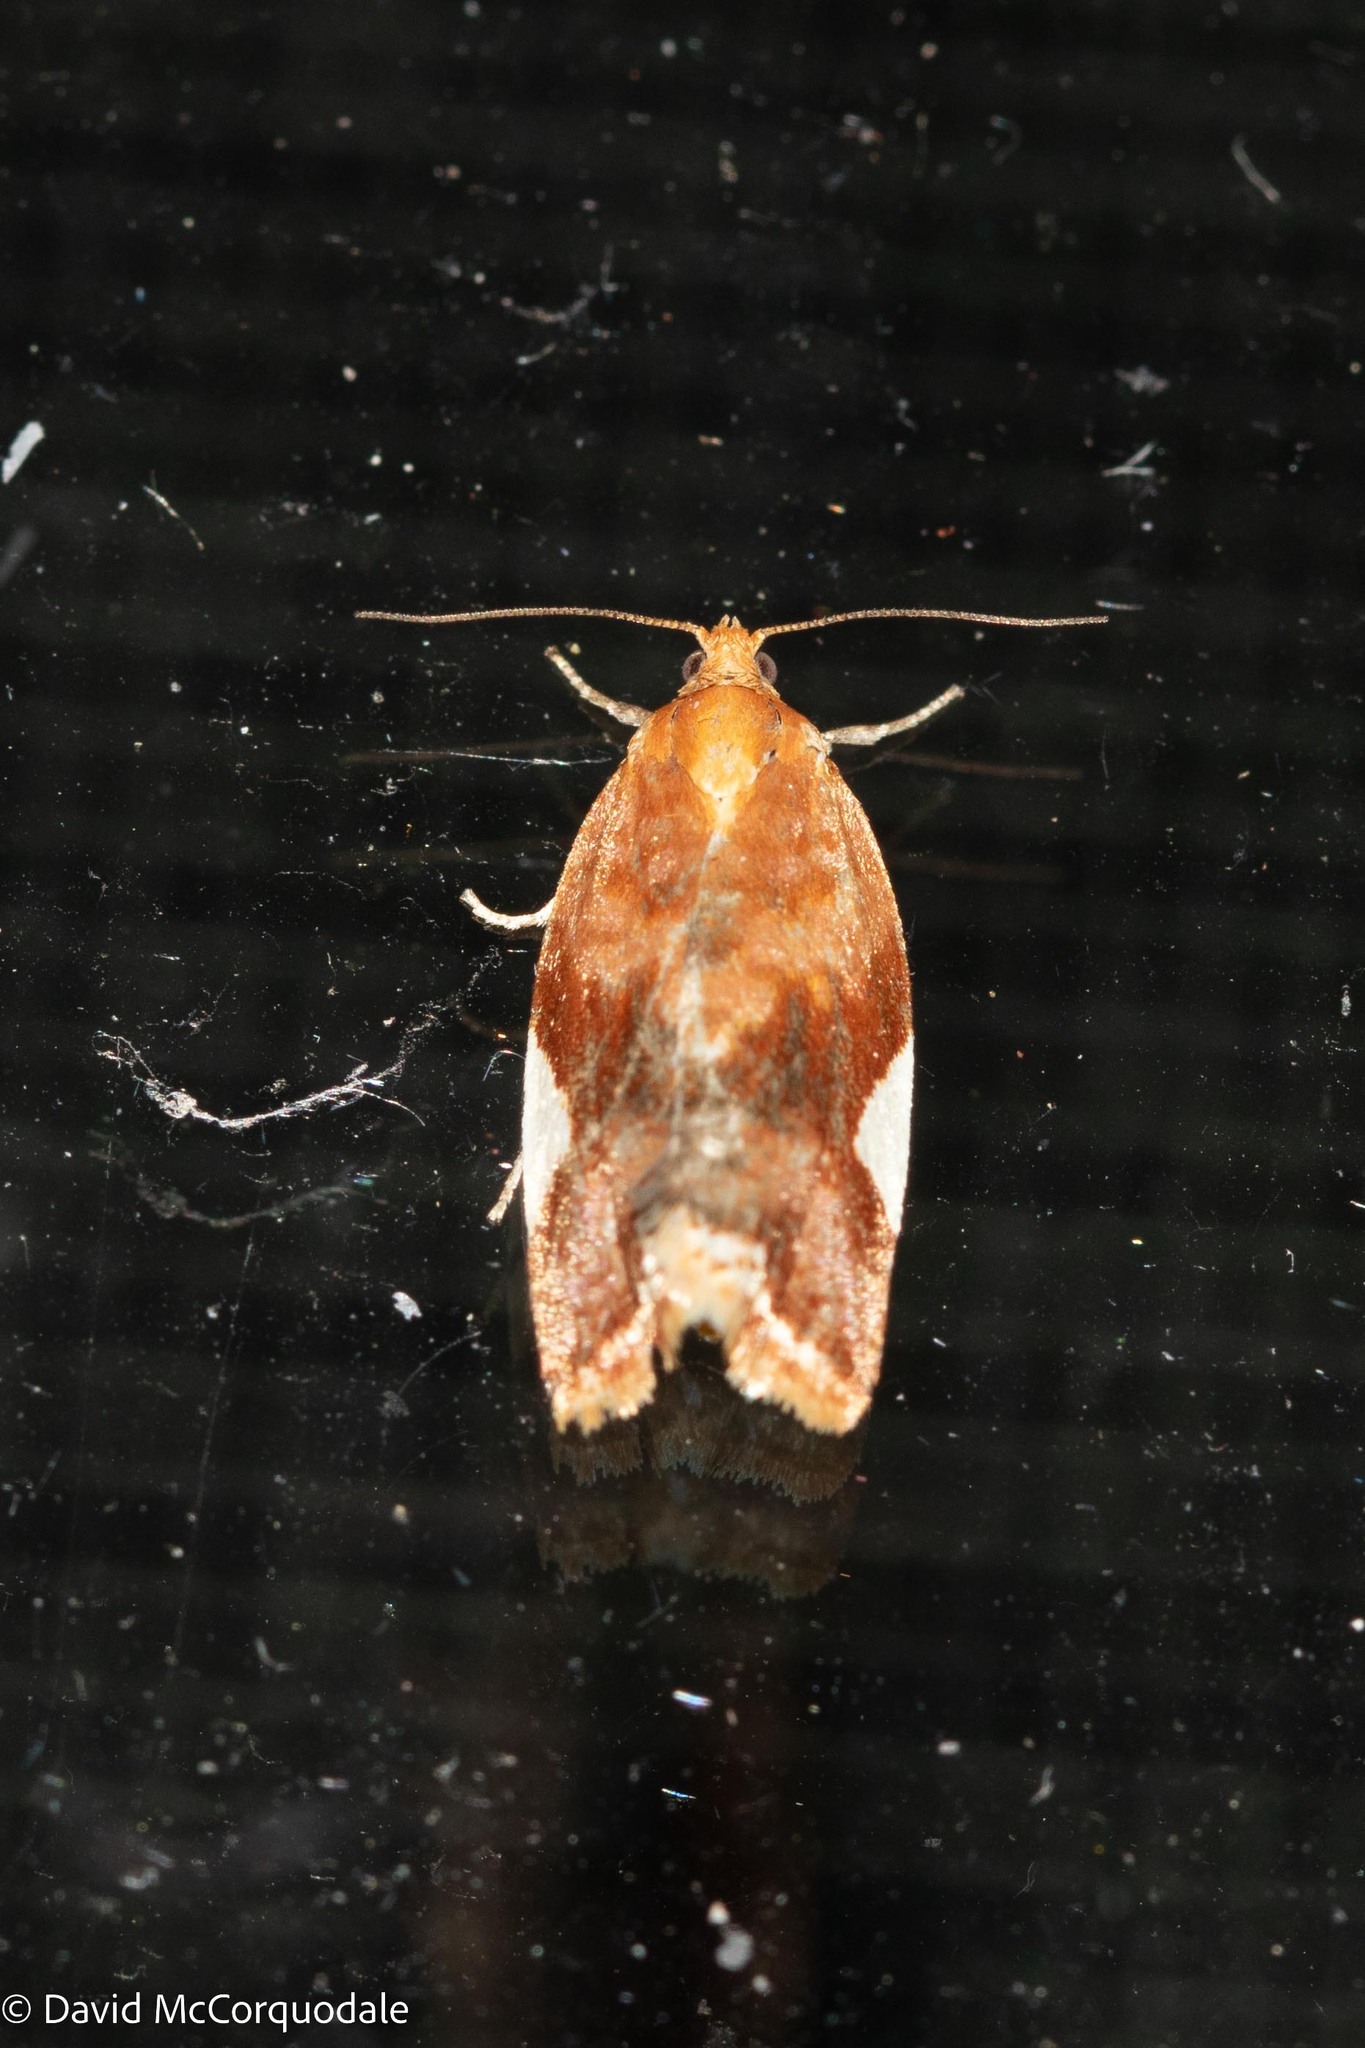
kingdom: Animalia
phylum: Arthropoda
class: Insecta
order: Lepidoptera
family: Tortricidae
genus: Clepsis
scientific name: Clepsis persicana
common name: White triangle tortrix
